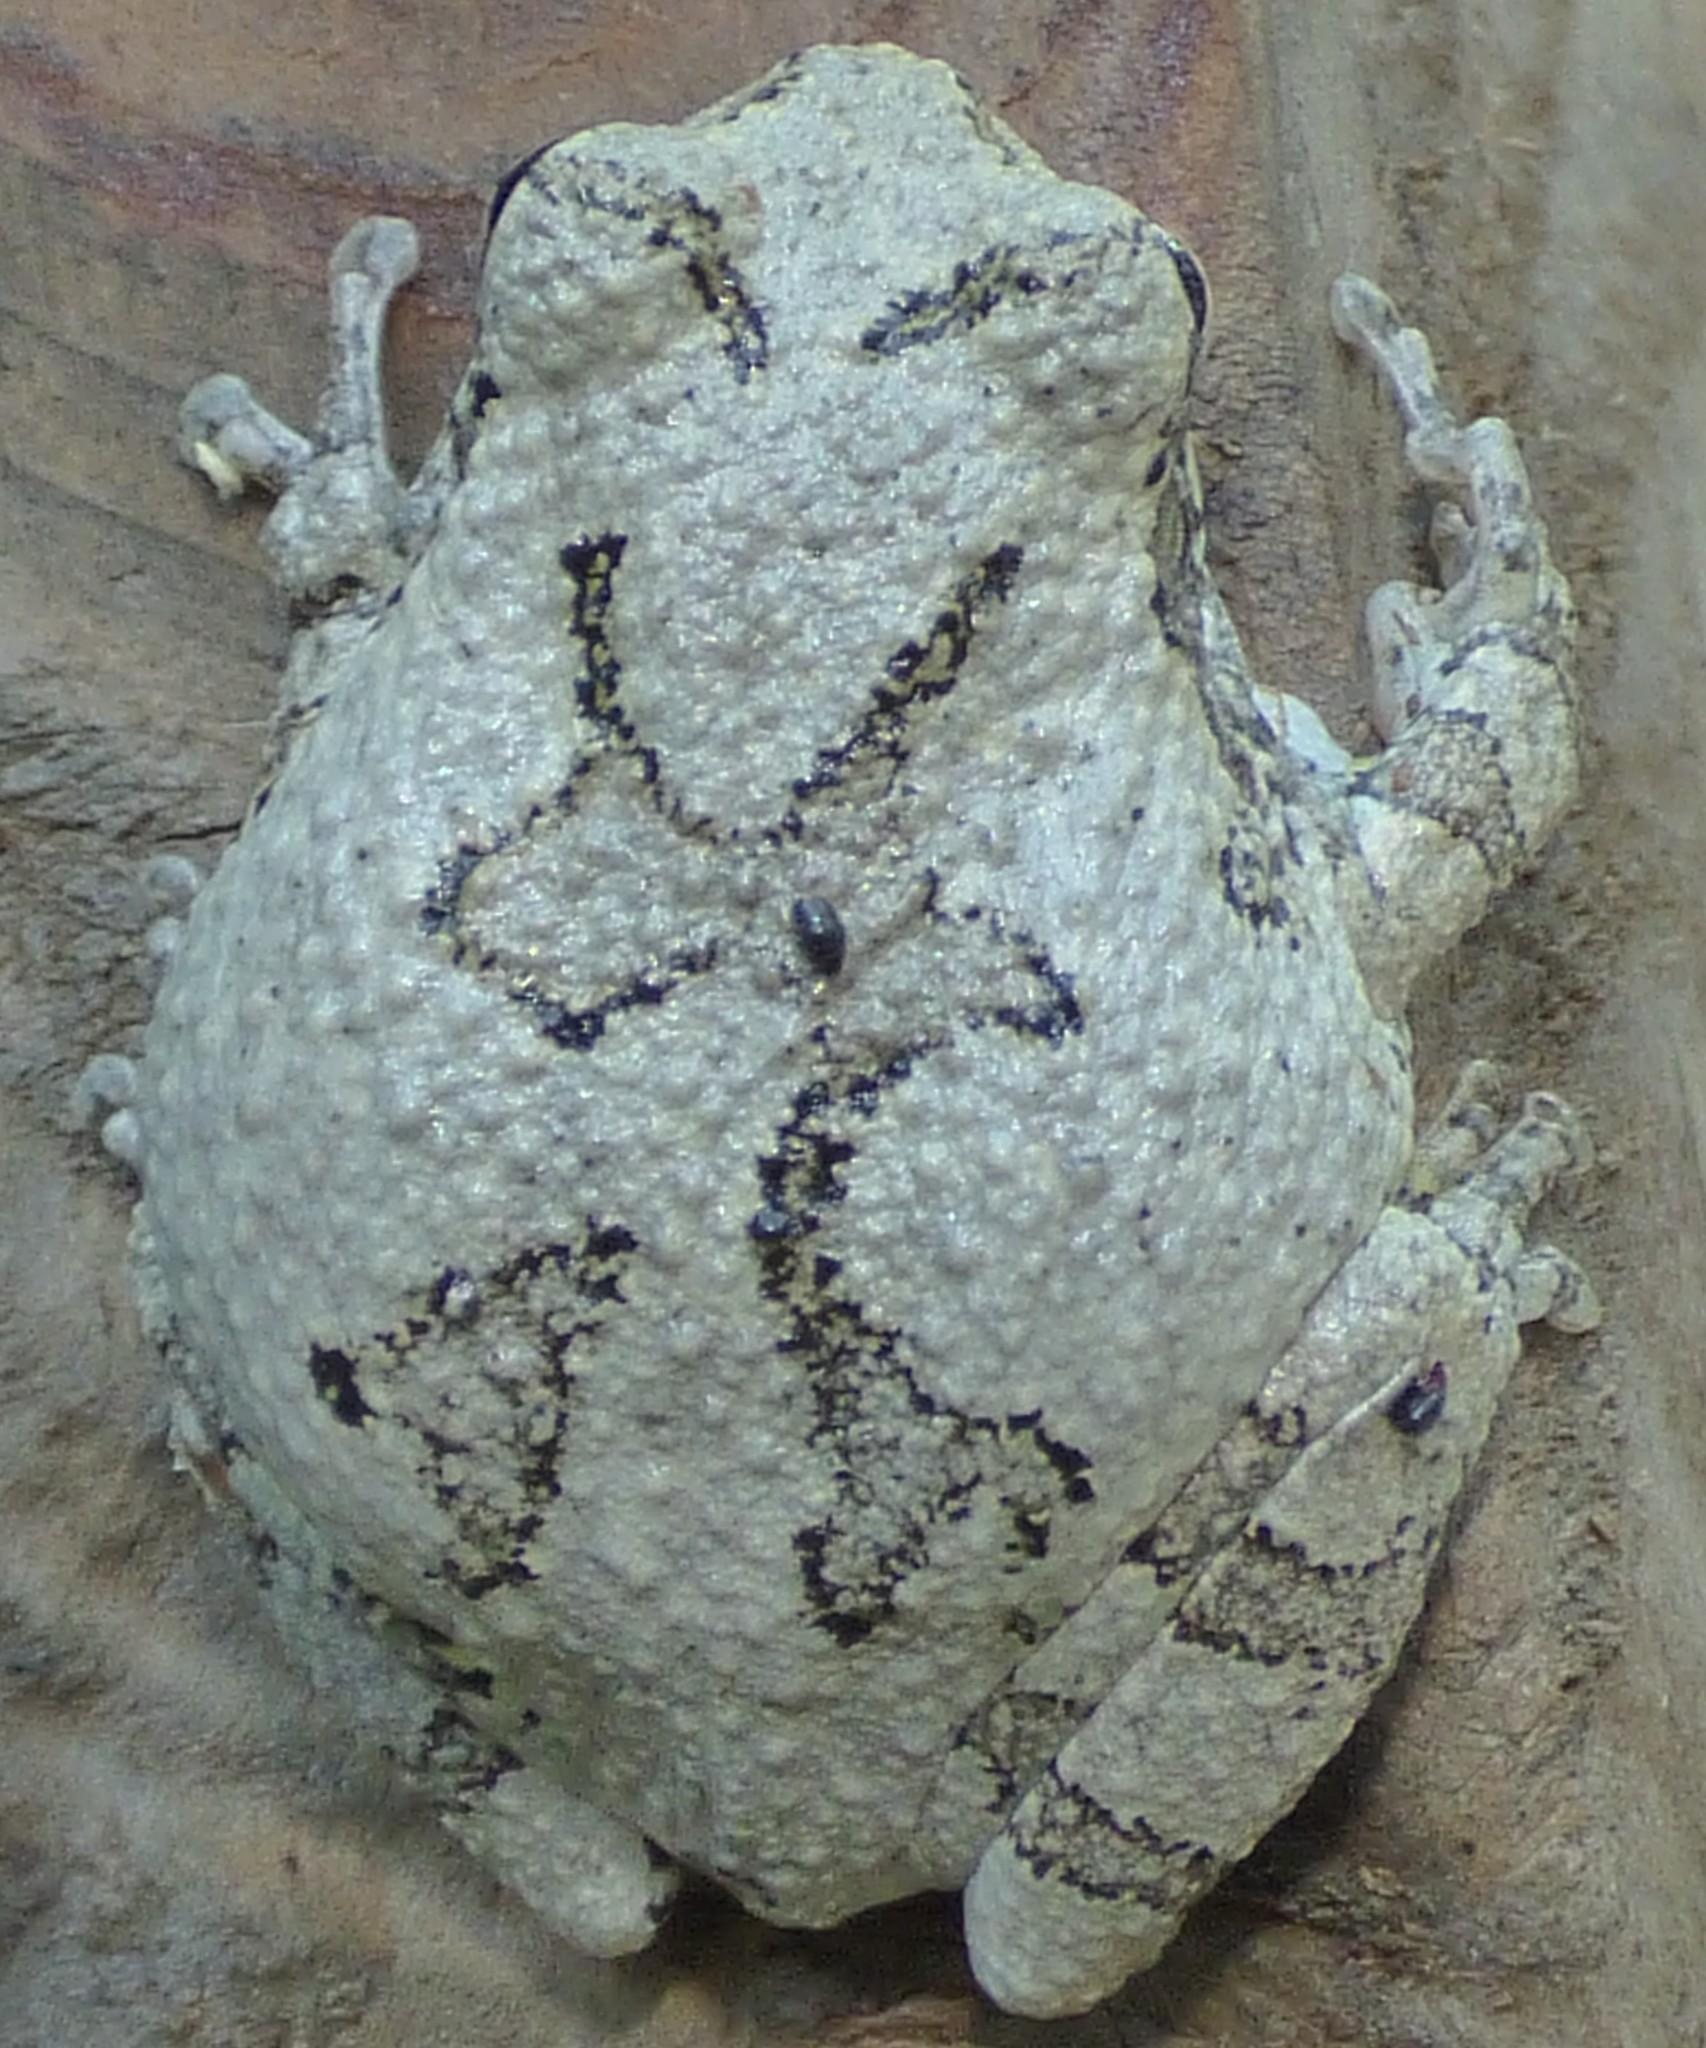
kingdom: Animalia
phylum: Chordata
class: Amphibia
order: Anura
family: Hylidae
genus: Dryophytes
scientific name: Dryophytes chrysoscelis
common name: Cope's gray treefrog
